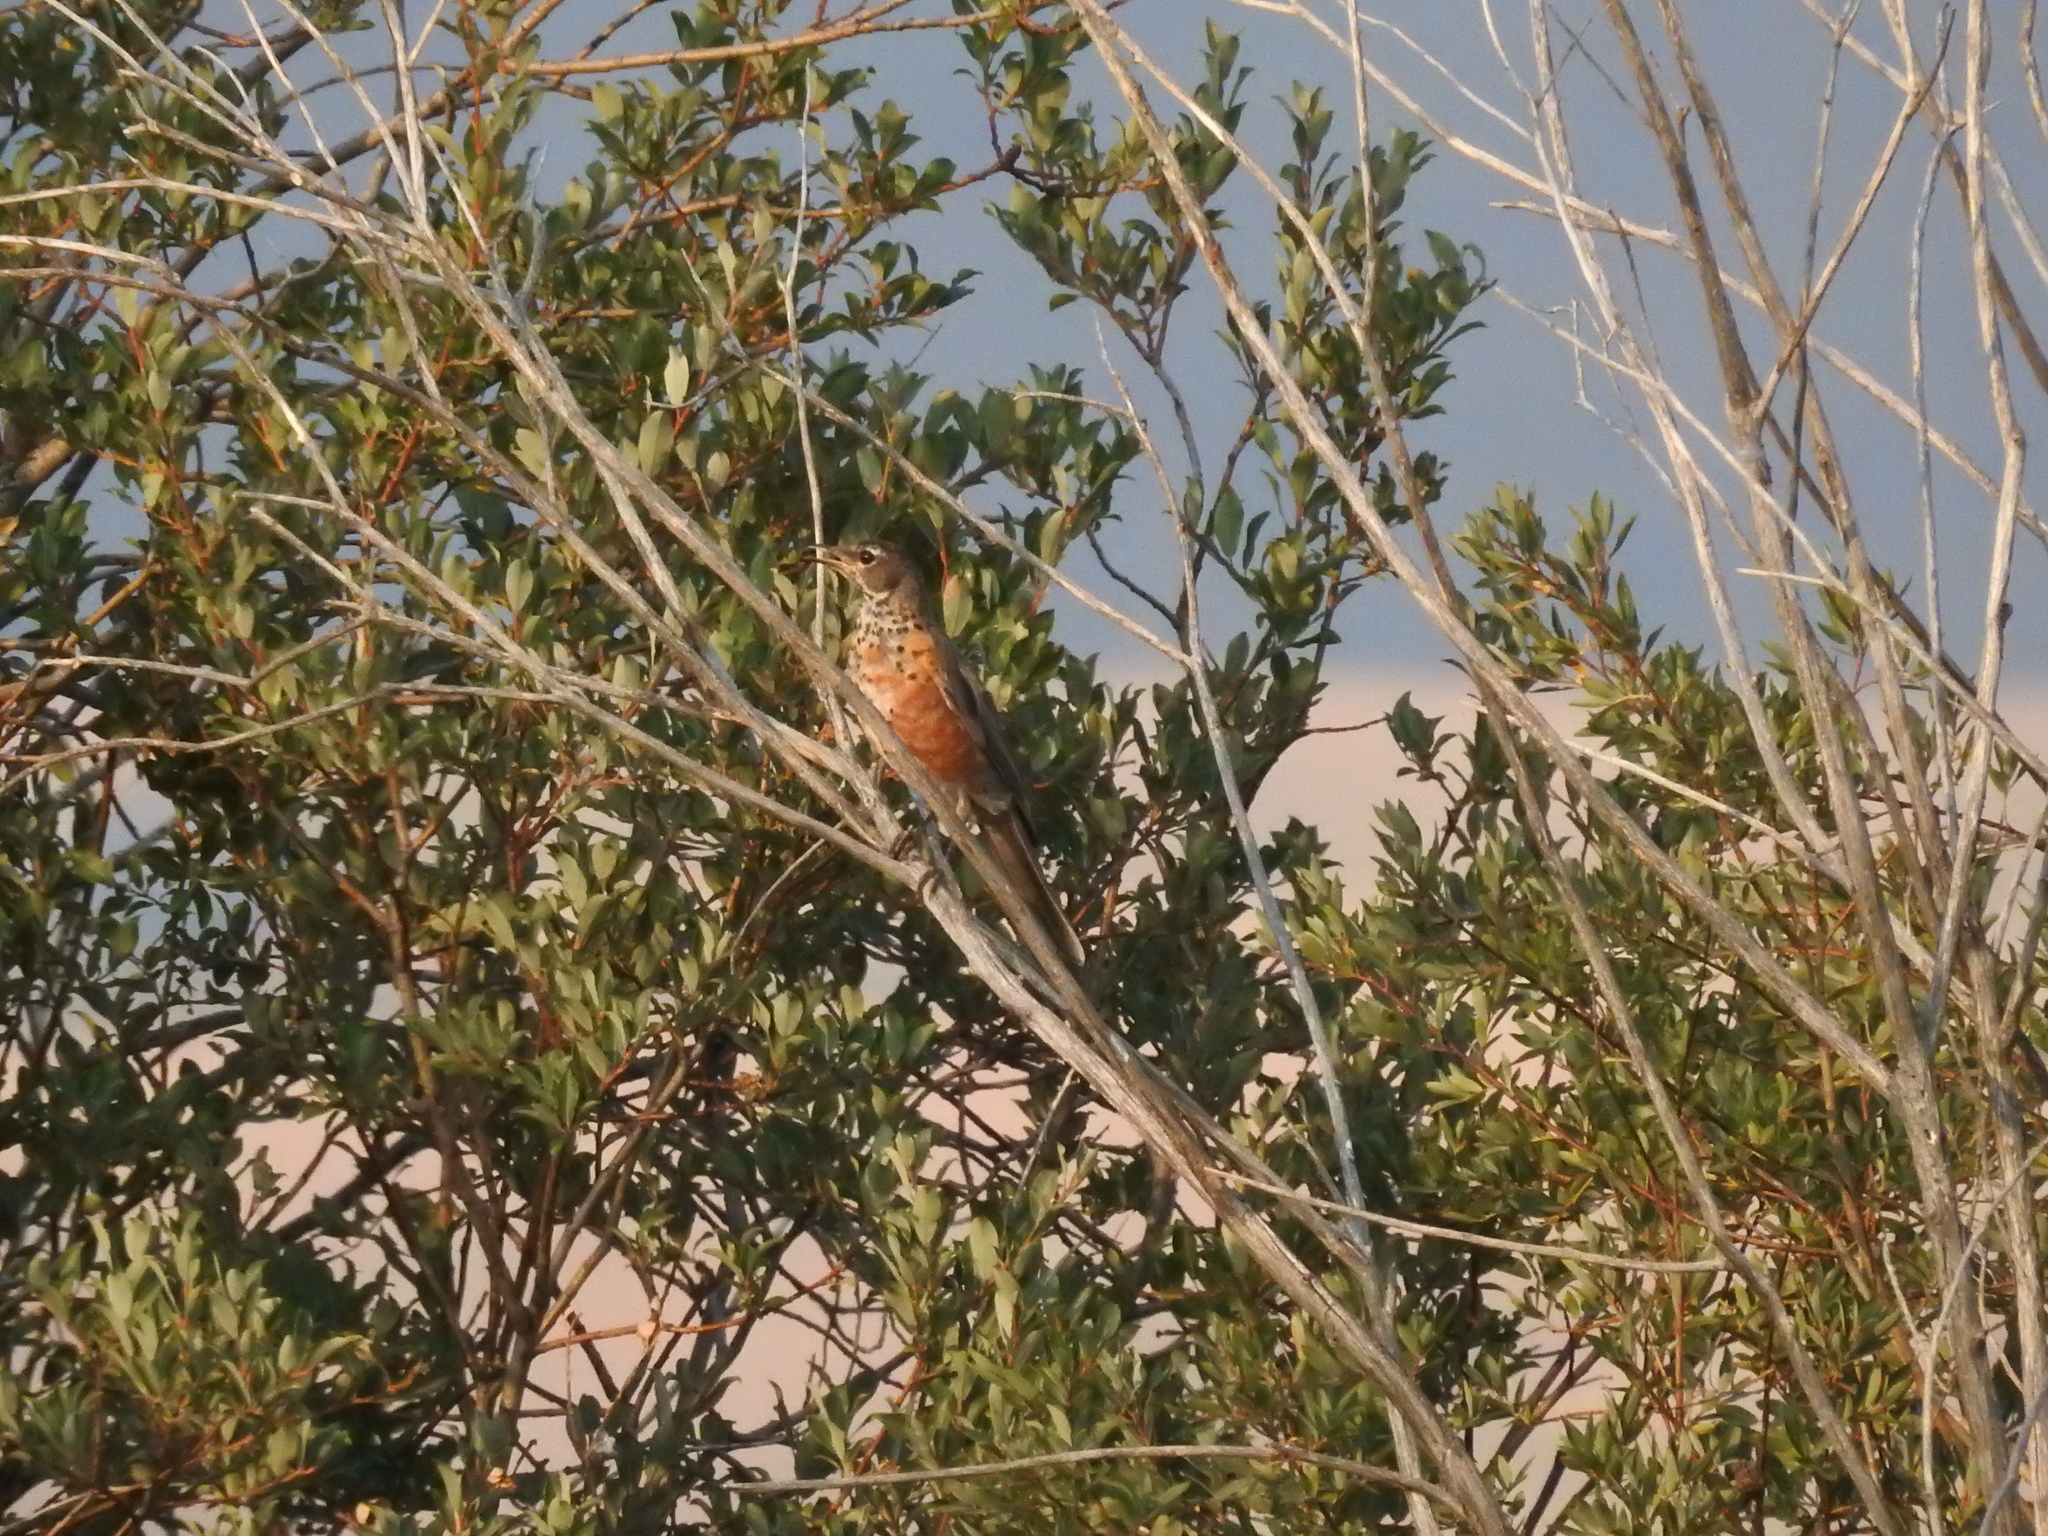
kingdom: Animalia
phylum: Chordata
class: Aves
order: Passeriformes
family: Turdidae
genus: Turdus
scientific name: Turdus migratorius
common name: American robin
